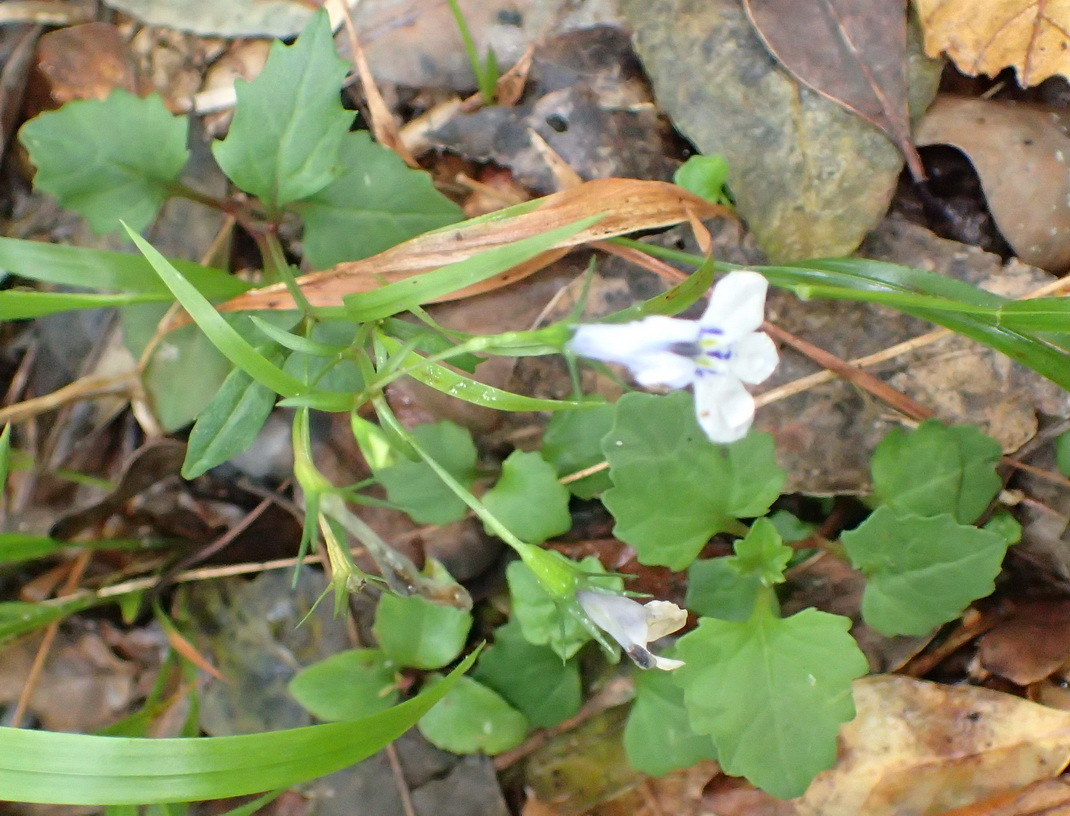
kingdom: Plantae
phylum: Tracheophyta
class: Magnoliopsida
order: Asterales
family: Campanulaceae
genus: Lobelia
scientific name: Lobelia cuneifolia
